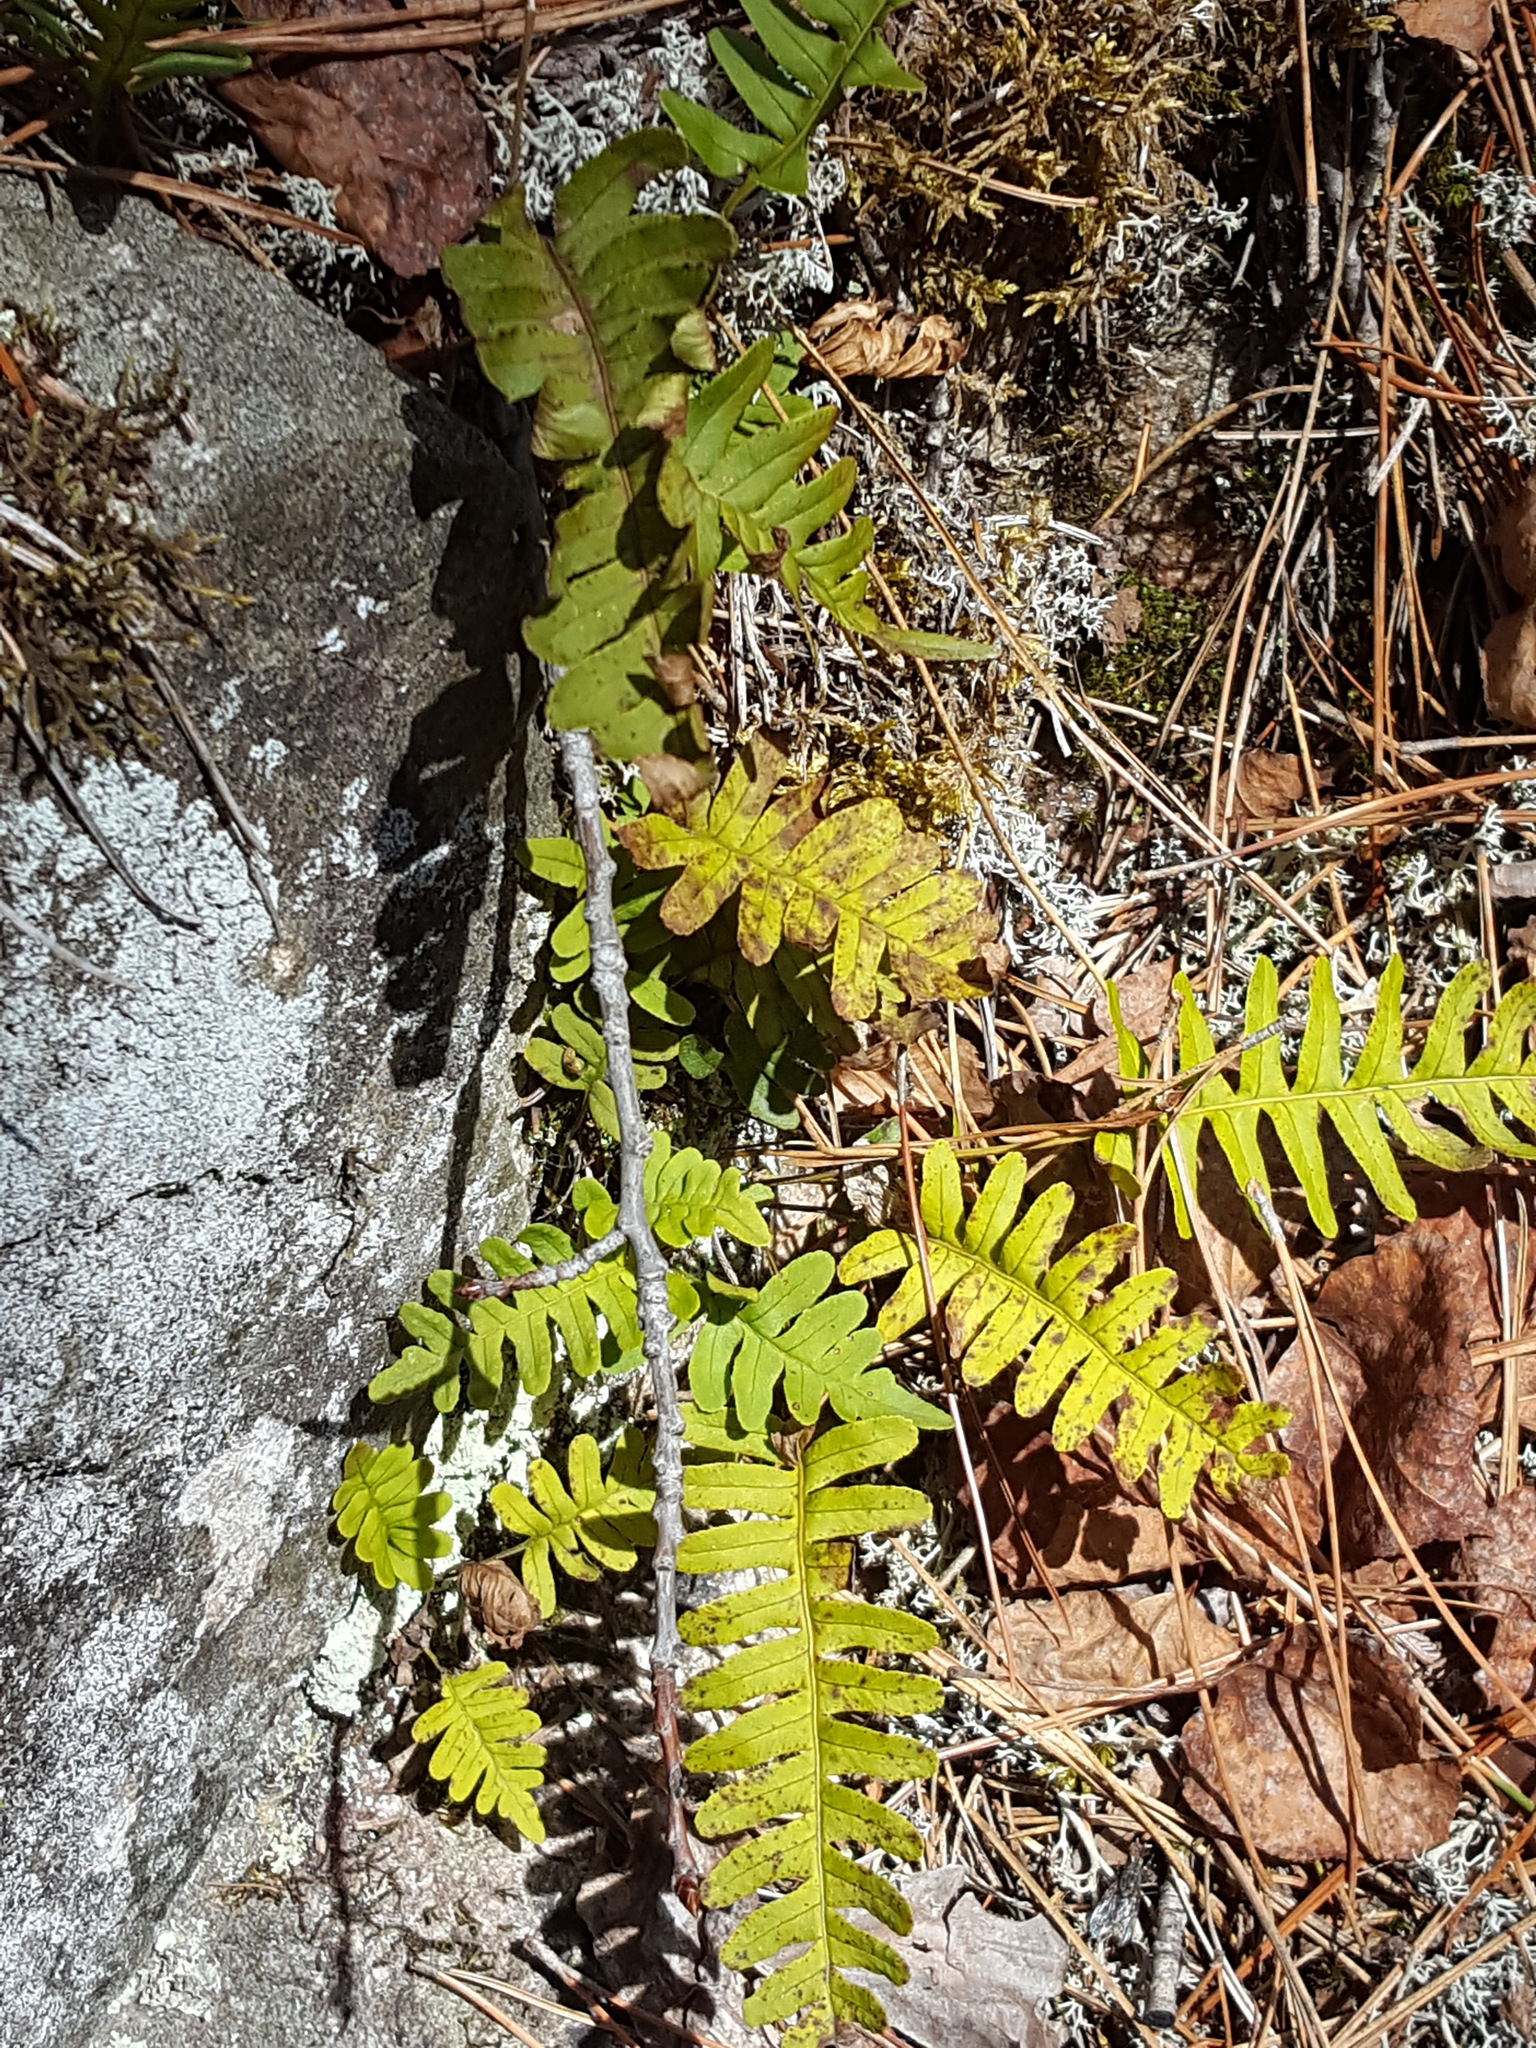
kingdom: Plantae
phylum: Tracheophyta
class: Polypodiopsida
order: Polypodiales
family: Polypodiaceae
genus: Polypodium
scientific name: Polypodium virginianum
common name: American wall fern
